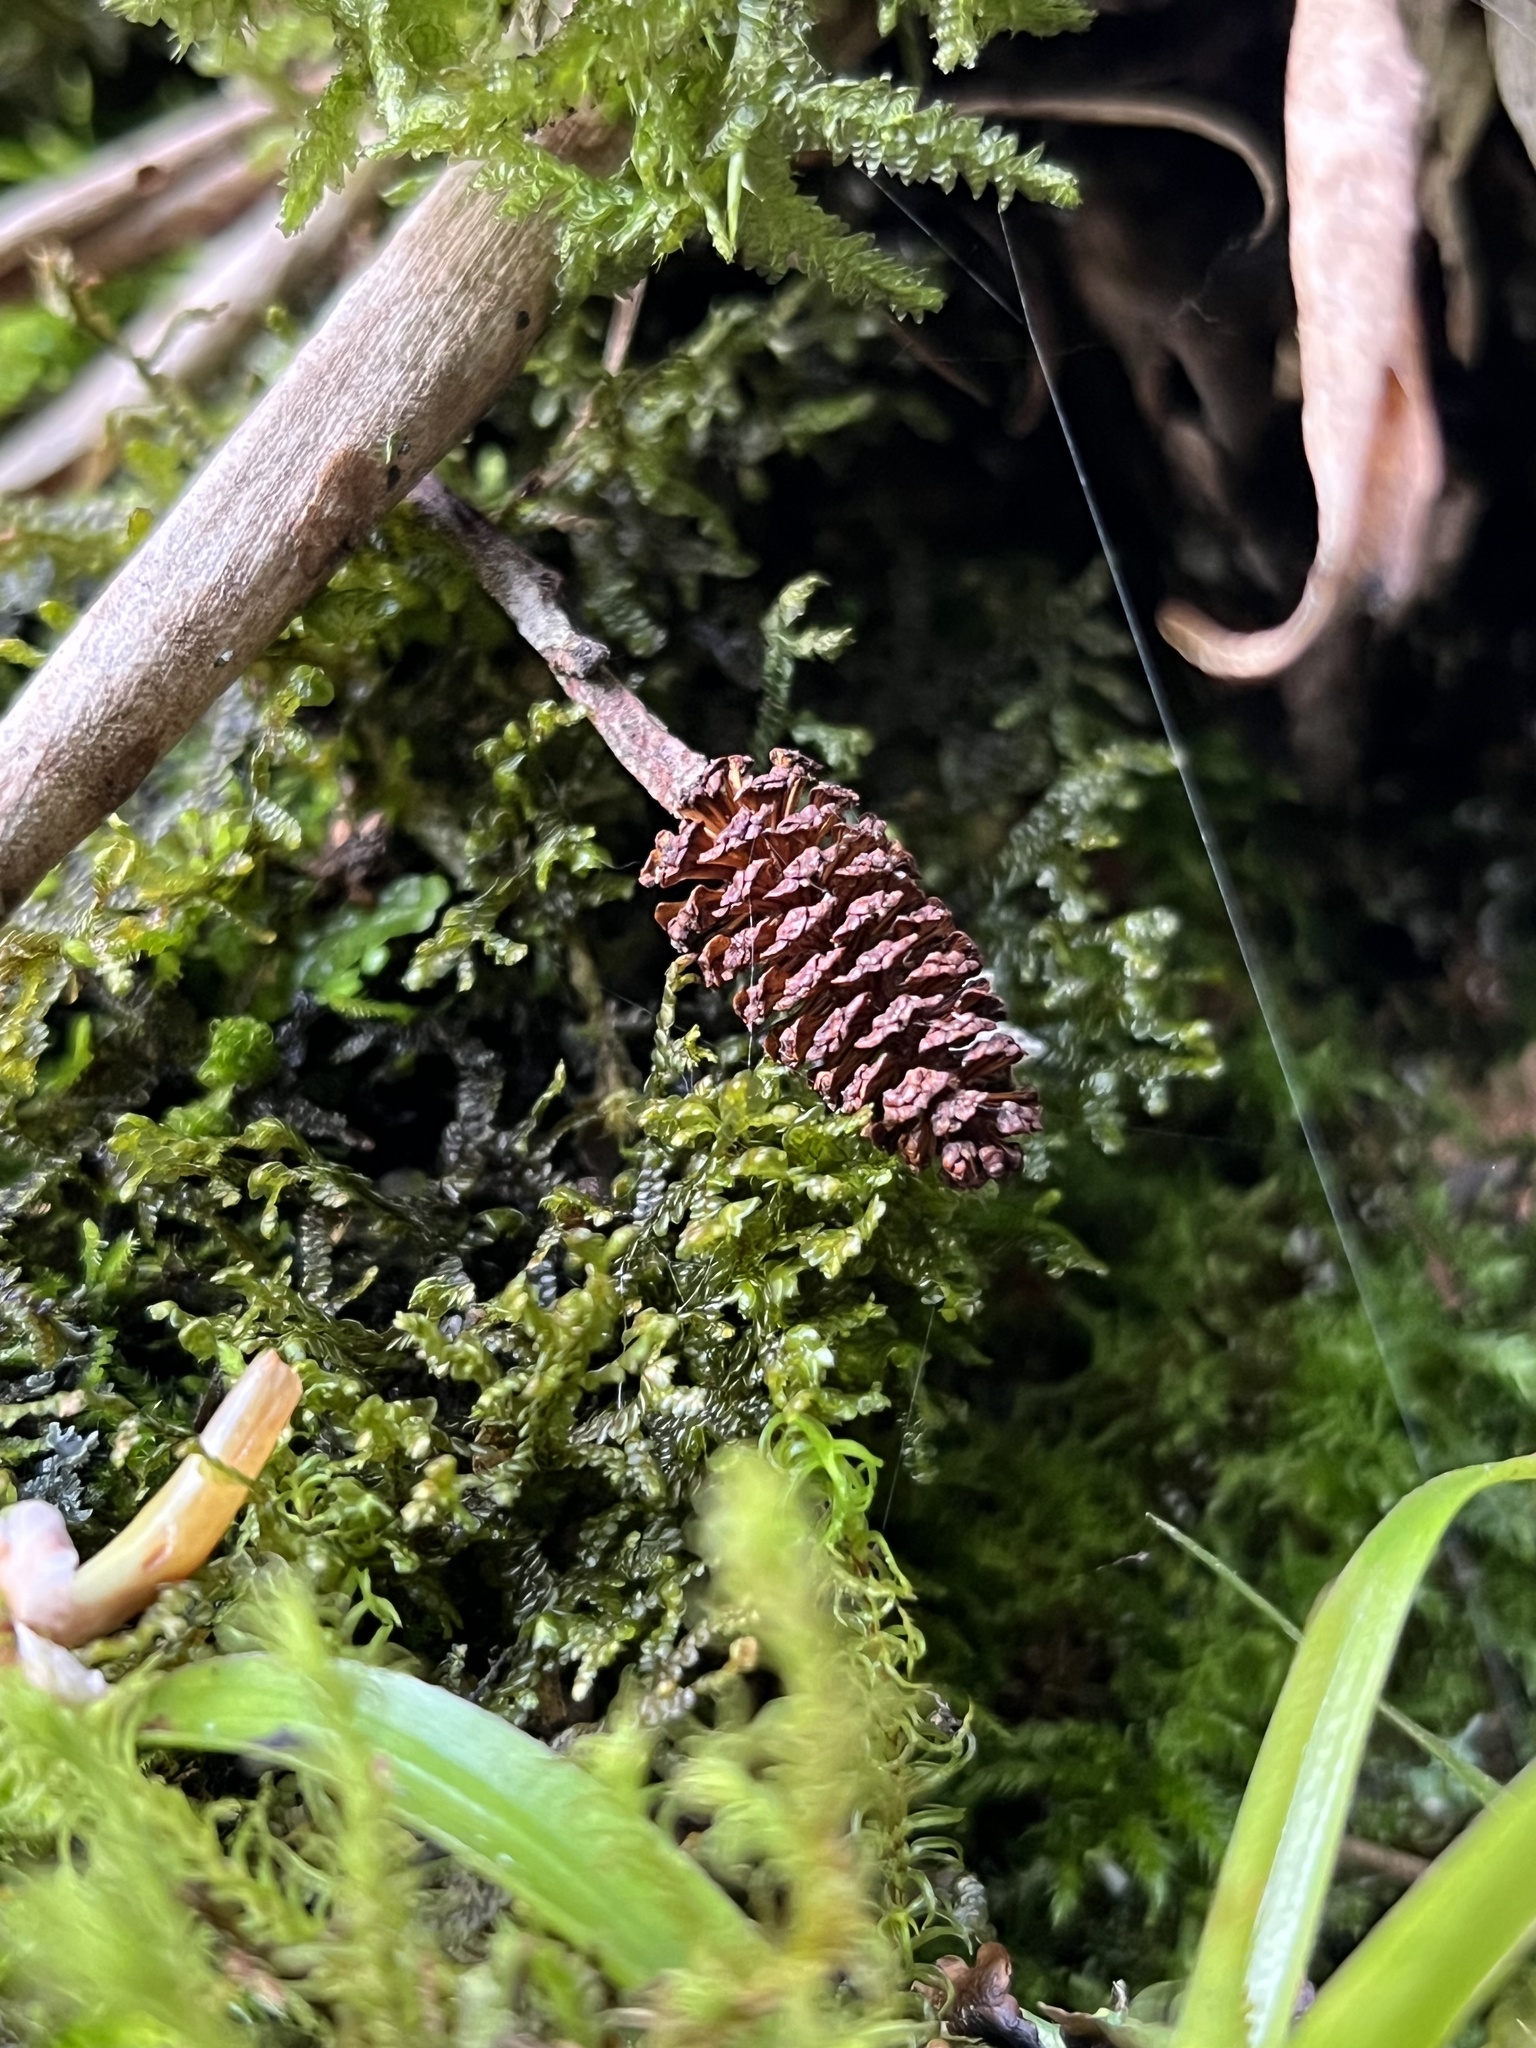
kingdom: Plantae
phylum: Tracheophyta
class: Magnoliopsida
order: Fagales
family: Betulaceae
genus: Alnus
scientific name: Alnus acuminata
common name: Alder
